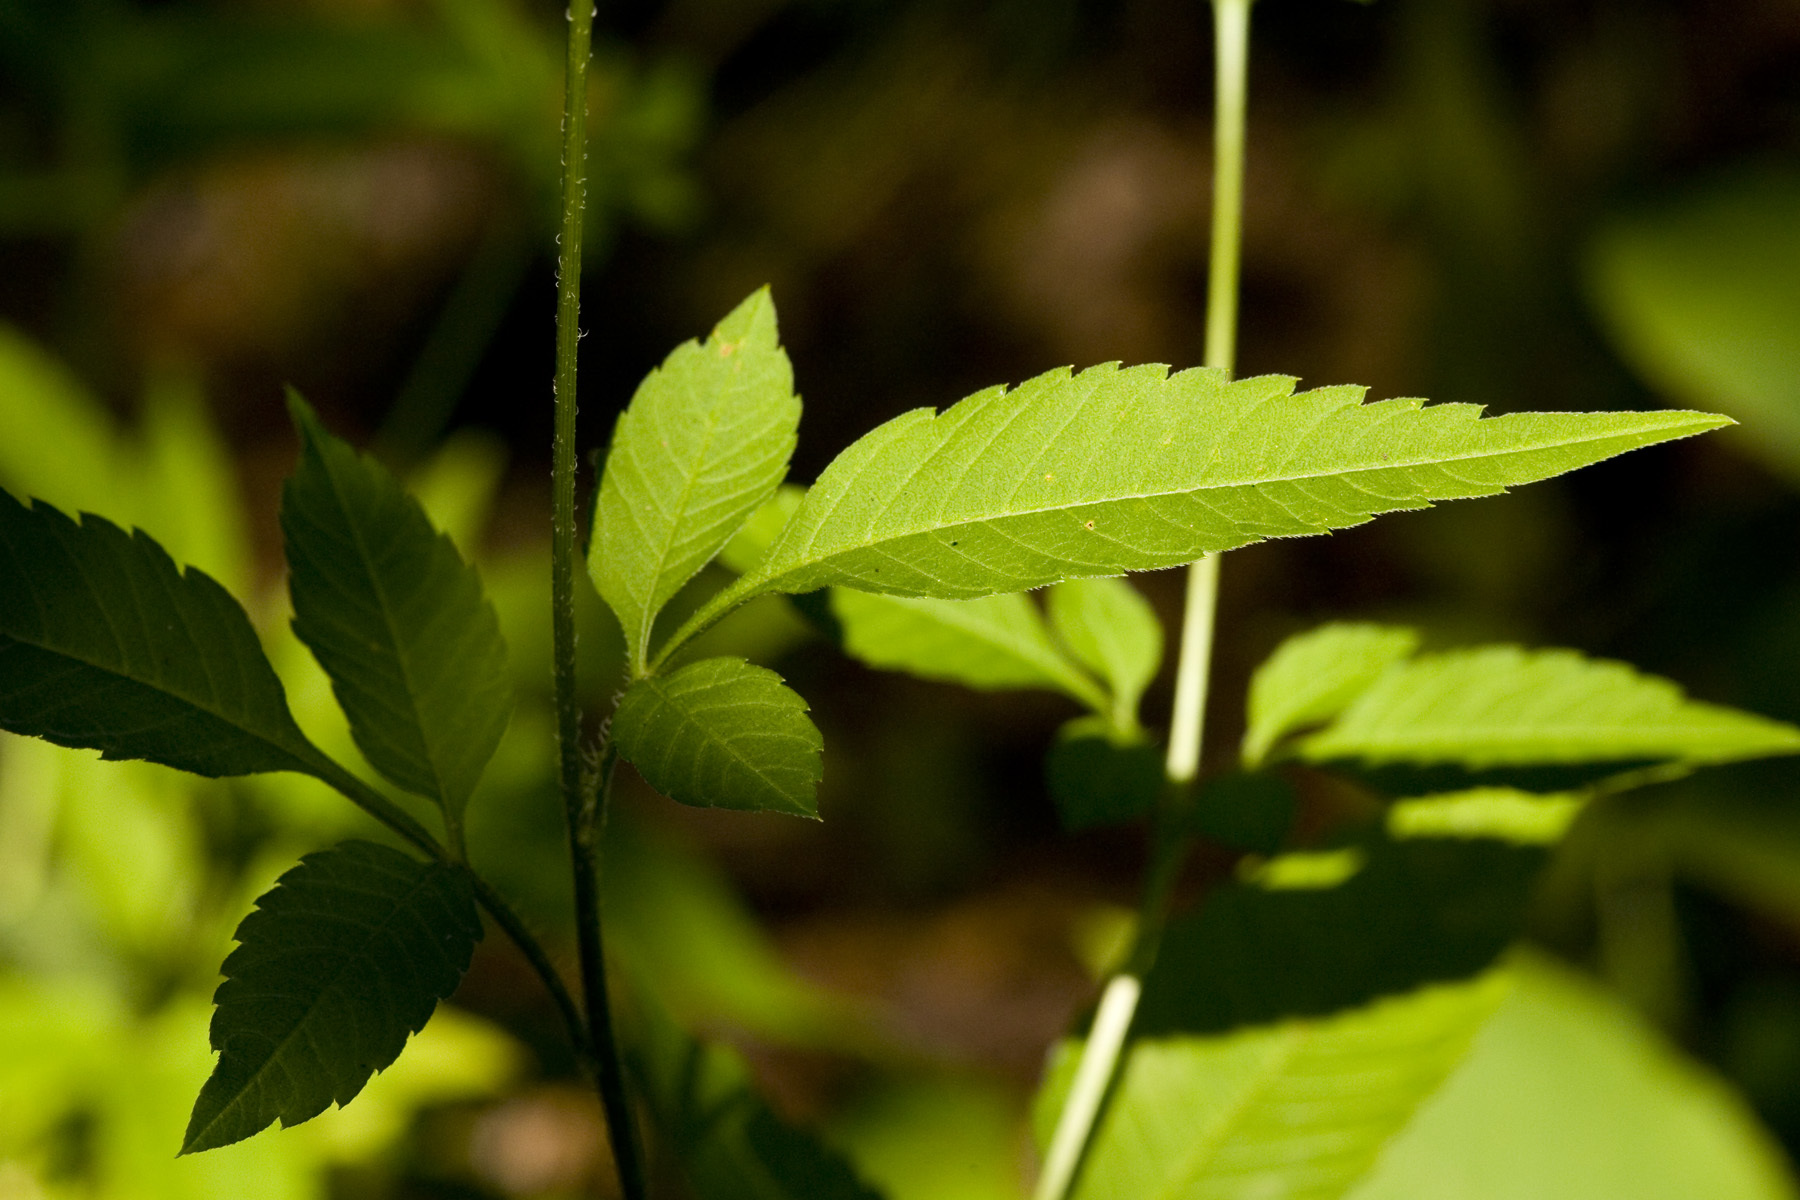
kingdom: Plantae
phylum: Tracheophyta
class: Magnoliopsida
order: Asterales
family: Asteraceae
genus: Bidens
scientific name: Bidens vulgata
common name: Tall beggarticks
